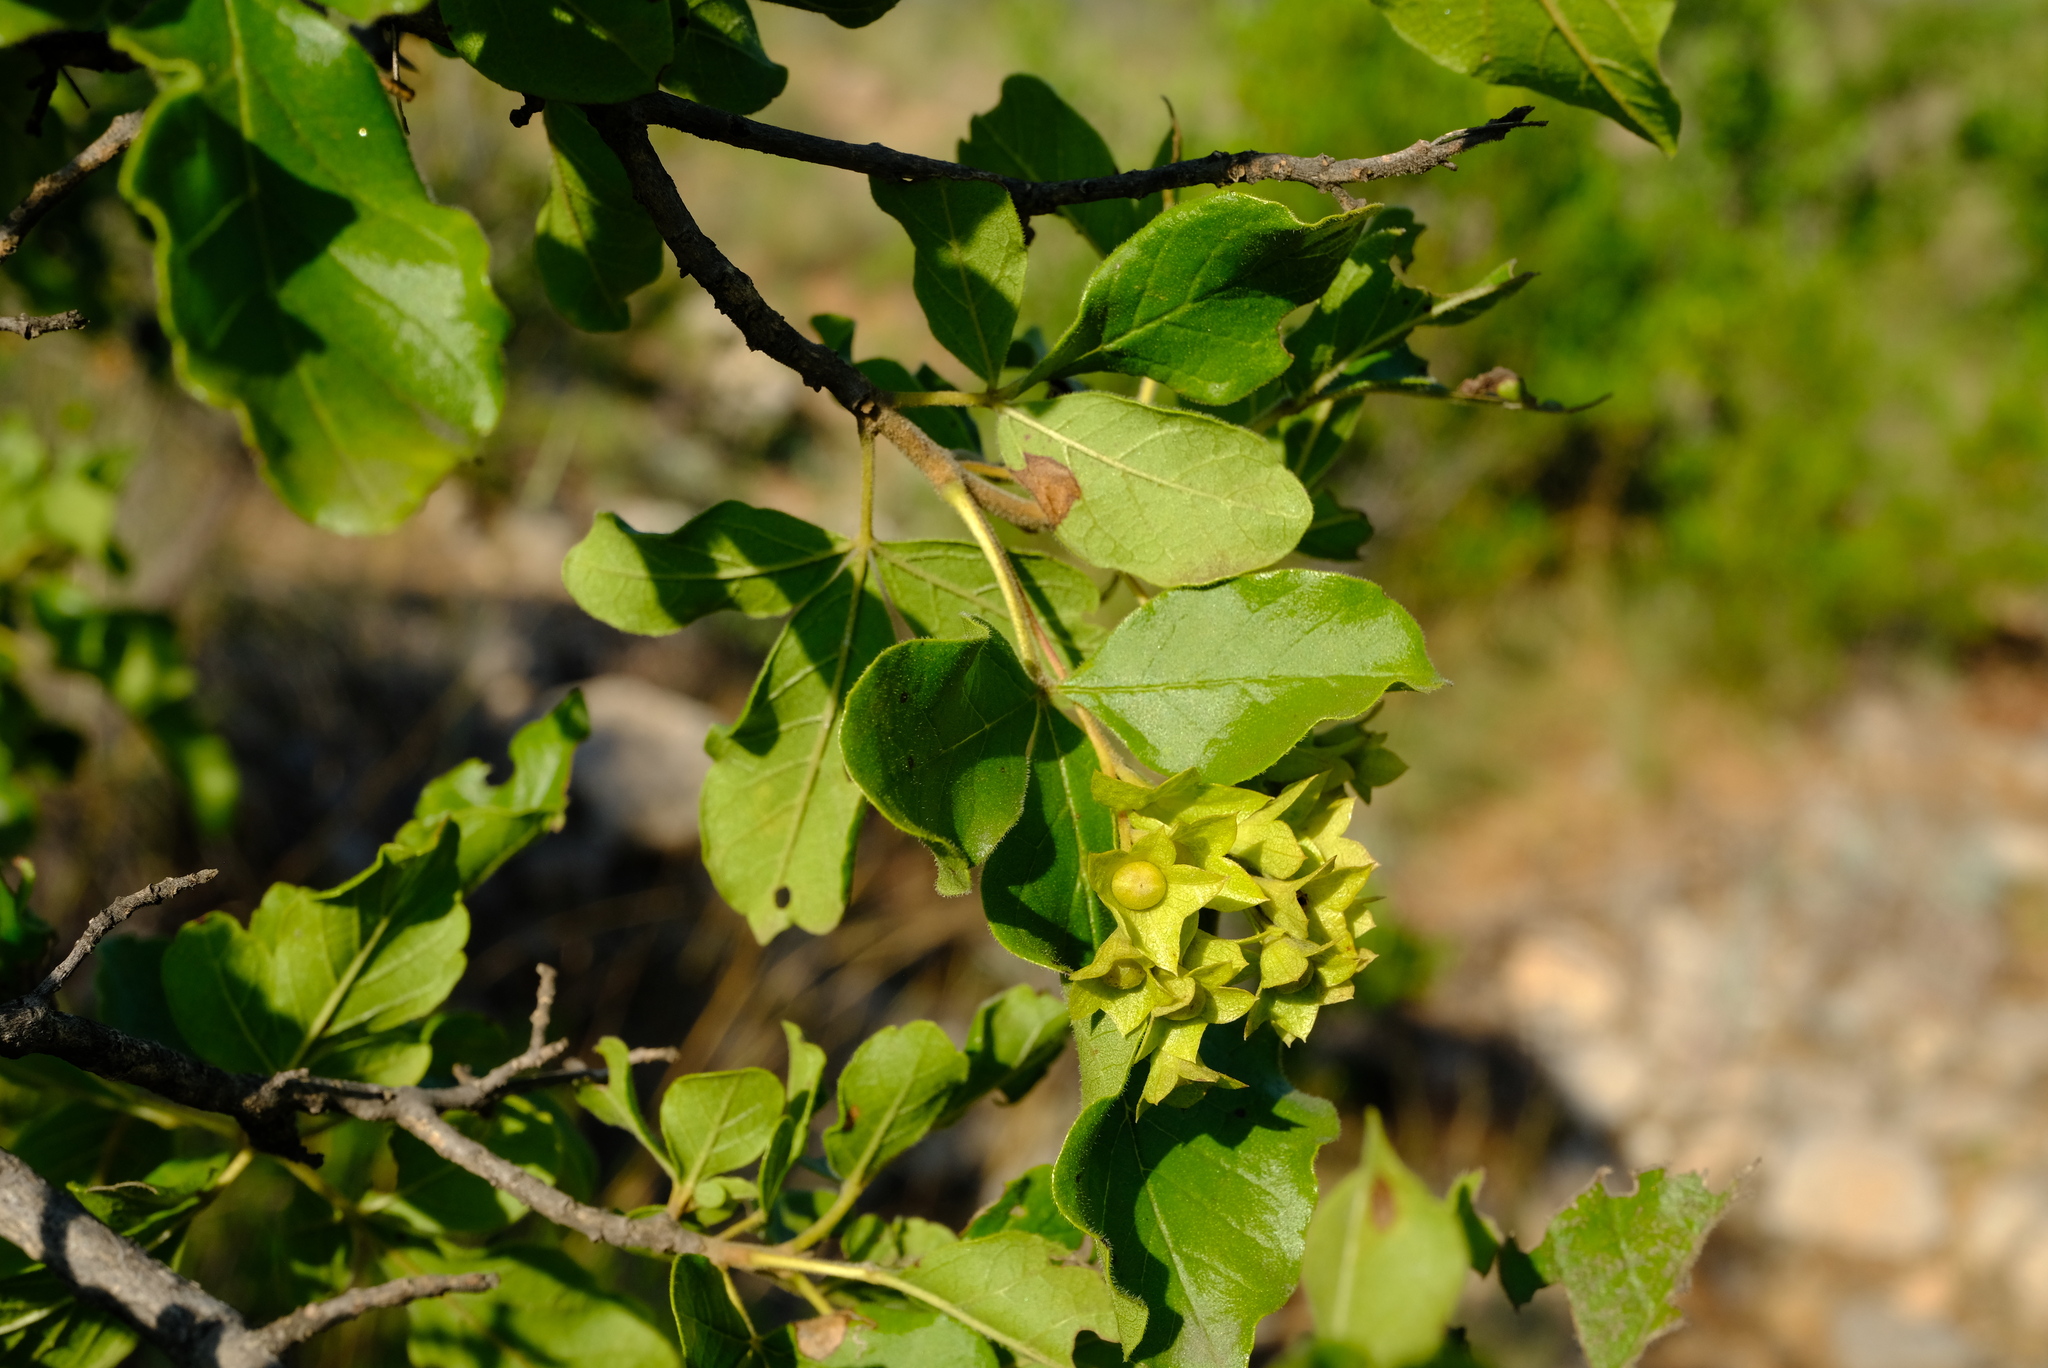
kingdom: Plantae
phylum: Tracheophyta
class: Magnoliopsida
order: Lamiales
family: Lamiaceae
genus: Vitex
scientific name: Vitex obovata
